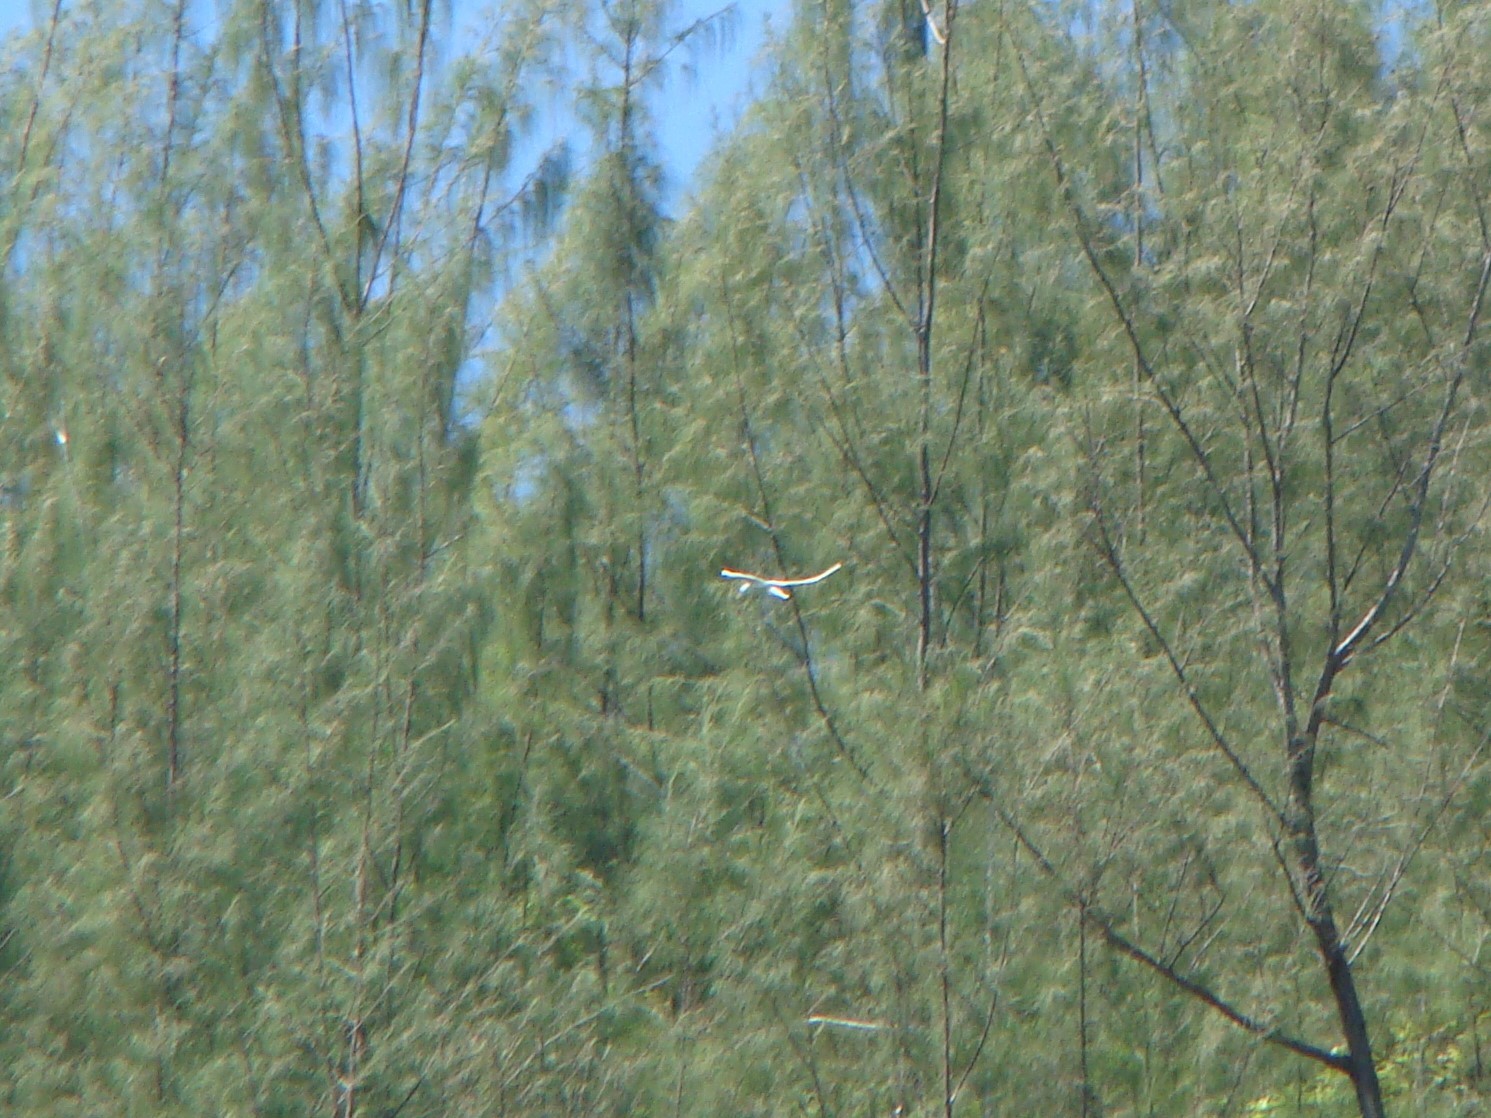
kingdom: Animalia
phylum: Chordata
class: Aves
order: Phaethontiformes
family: Phaethontidae
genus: Phaethon
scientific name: Phaethon lepturus
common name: White-tailed tropicbird
